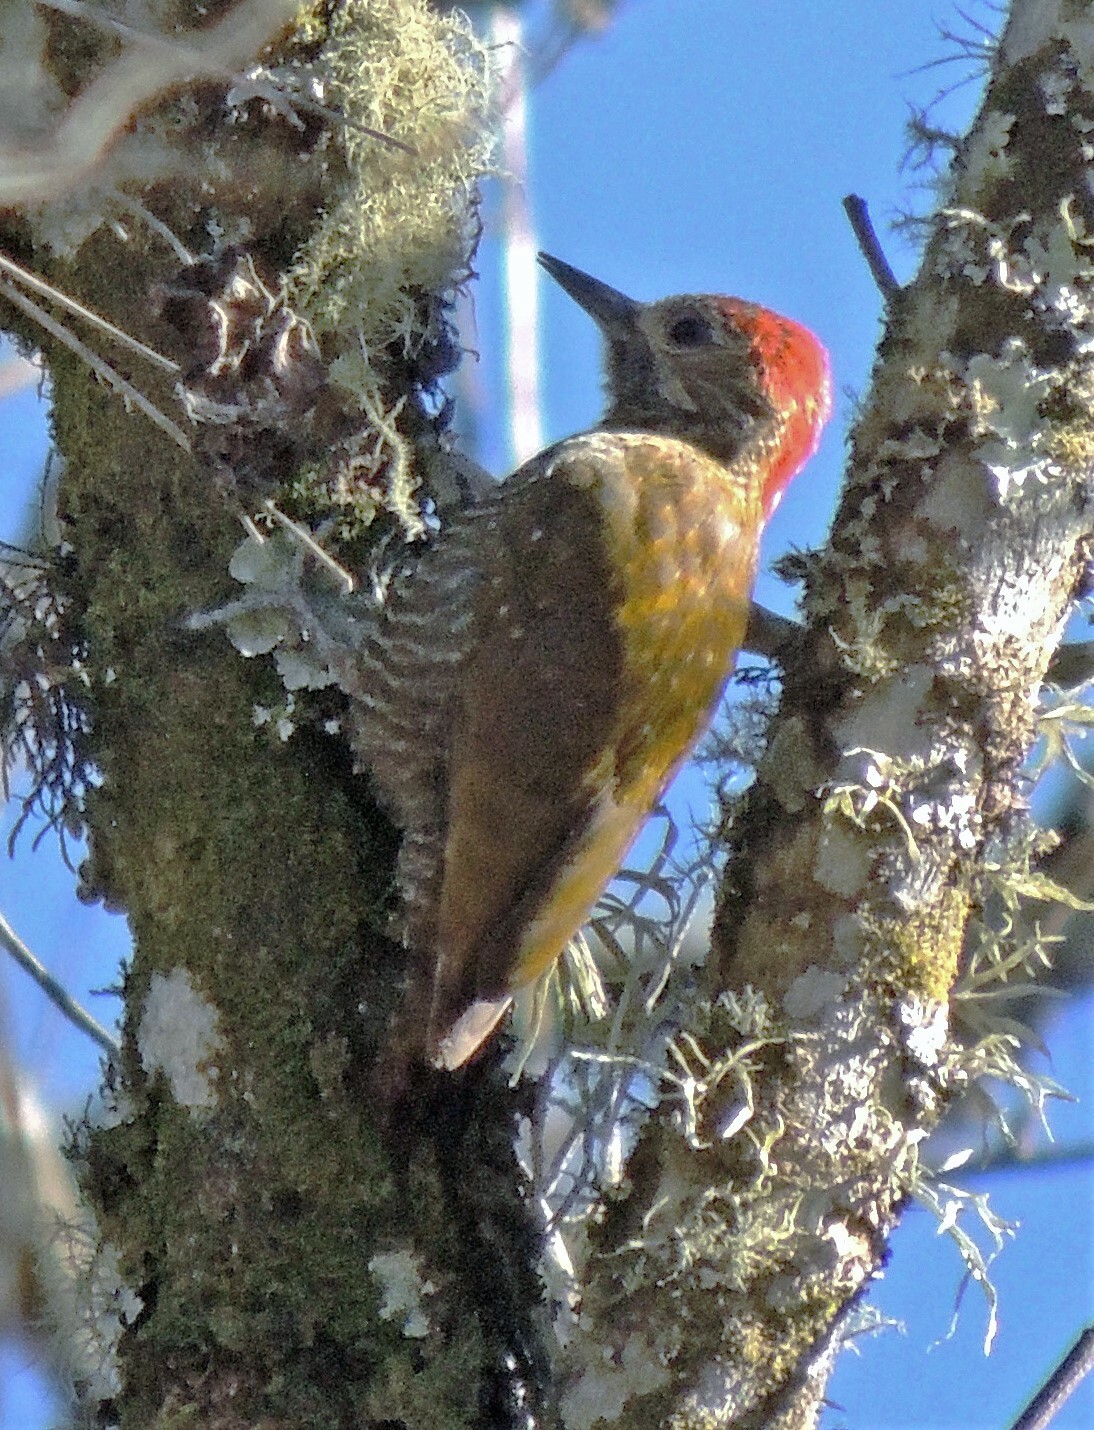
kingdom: Animalia
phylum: Chordata
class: Aves
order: Piciformes
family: Picidae
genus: Veniliornis
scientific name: Veniliornis frontalis
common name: Dot-fronted woodpecker
